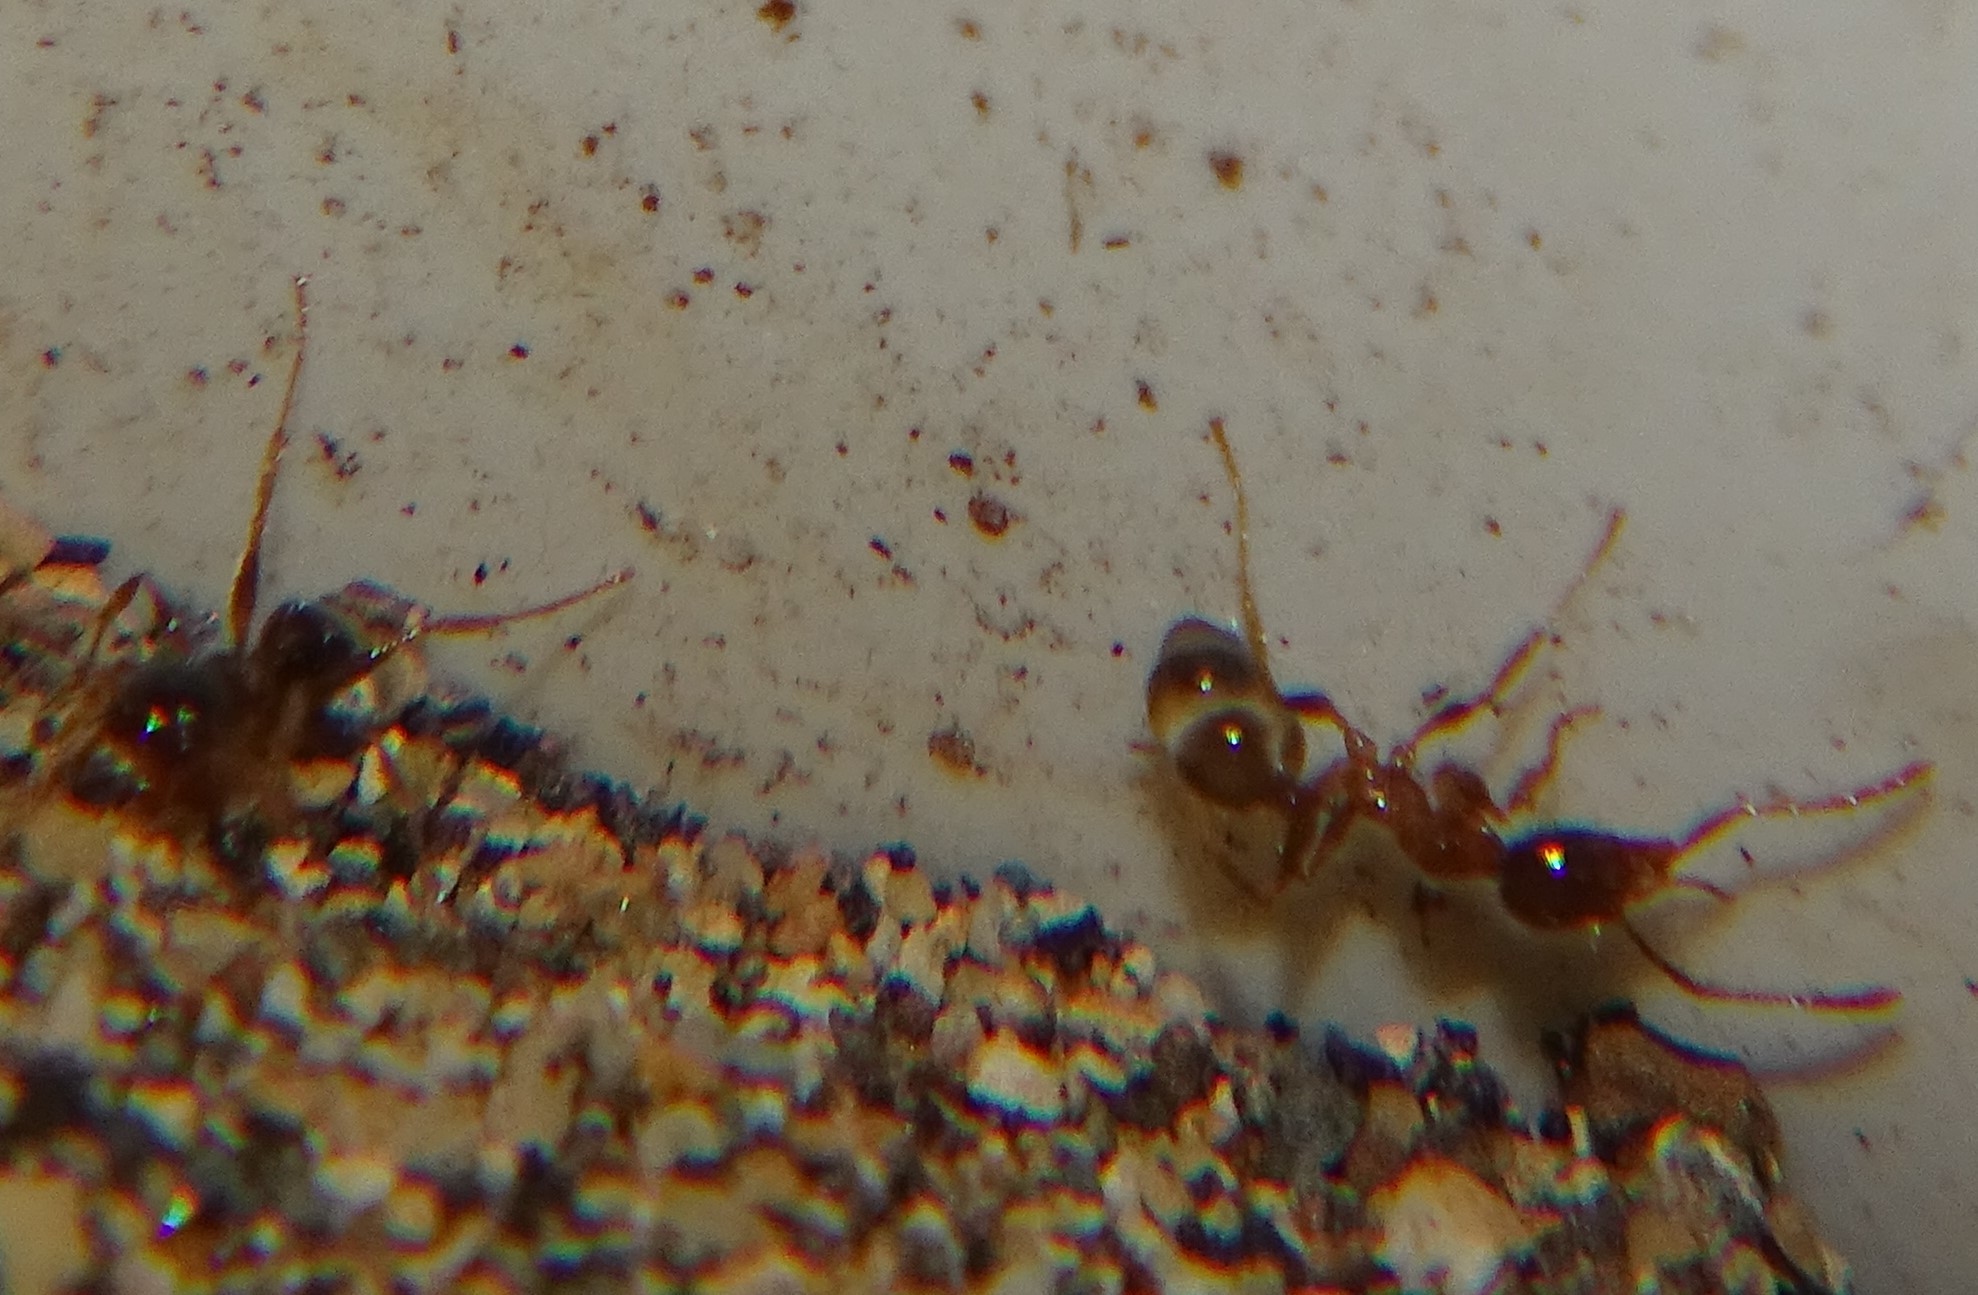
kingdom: Animalia
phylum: Arthropoda
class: Insecta
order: Hymenoptera
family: Formicidae
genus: Pheidole
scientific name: Pheidole megacephala
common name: Bigheaded ant
